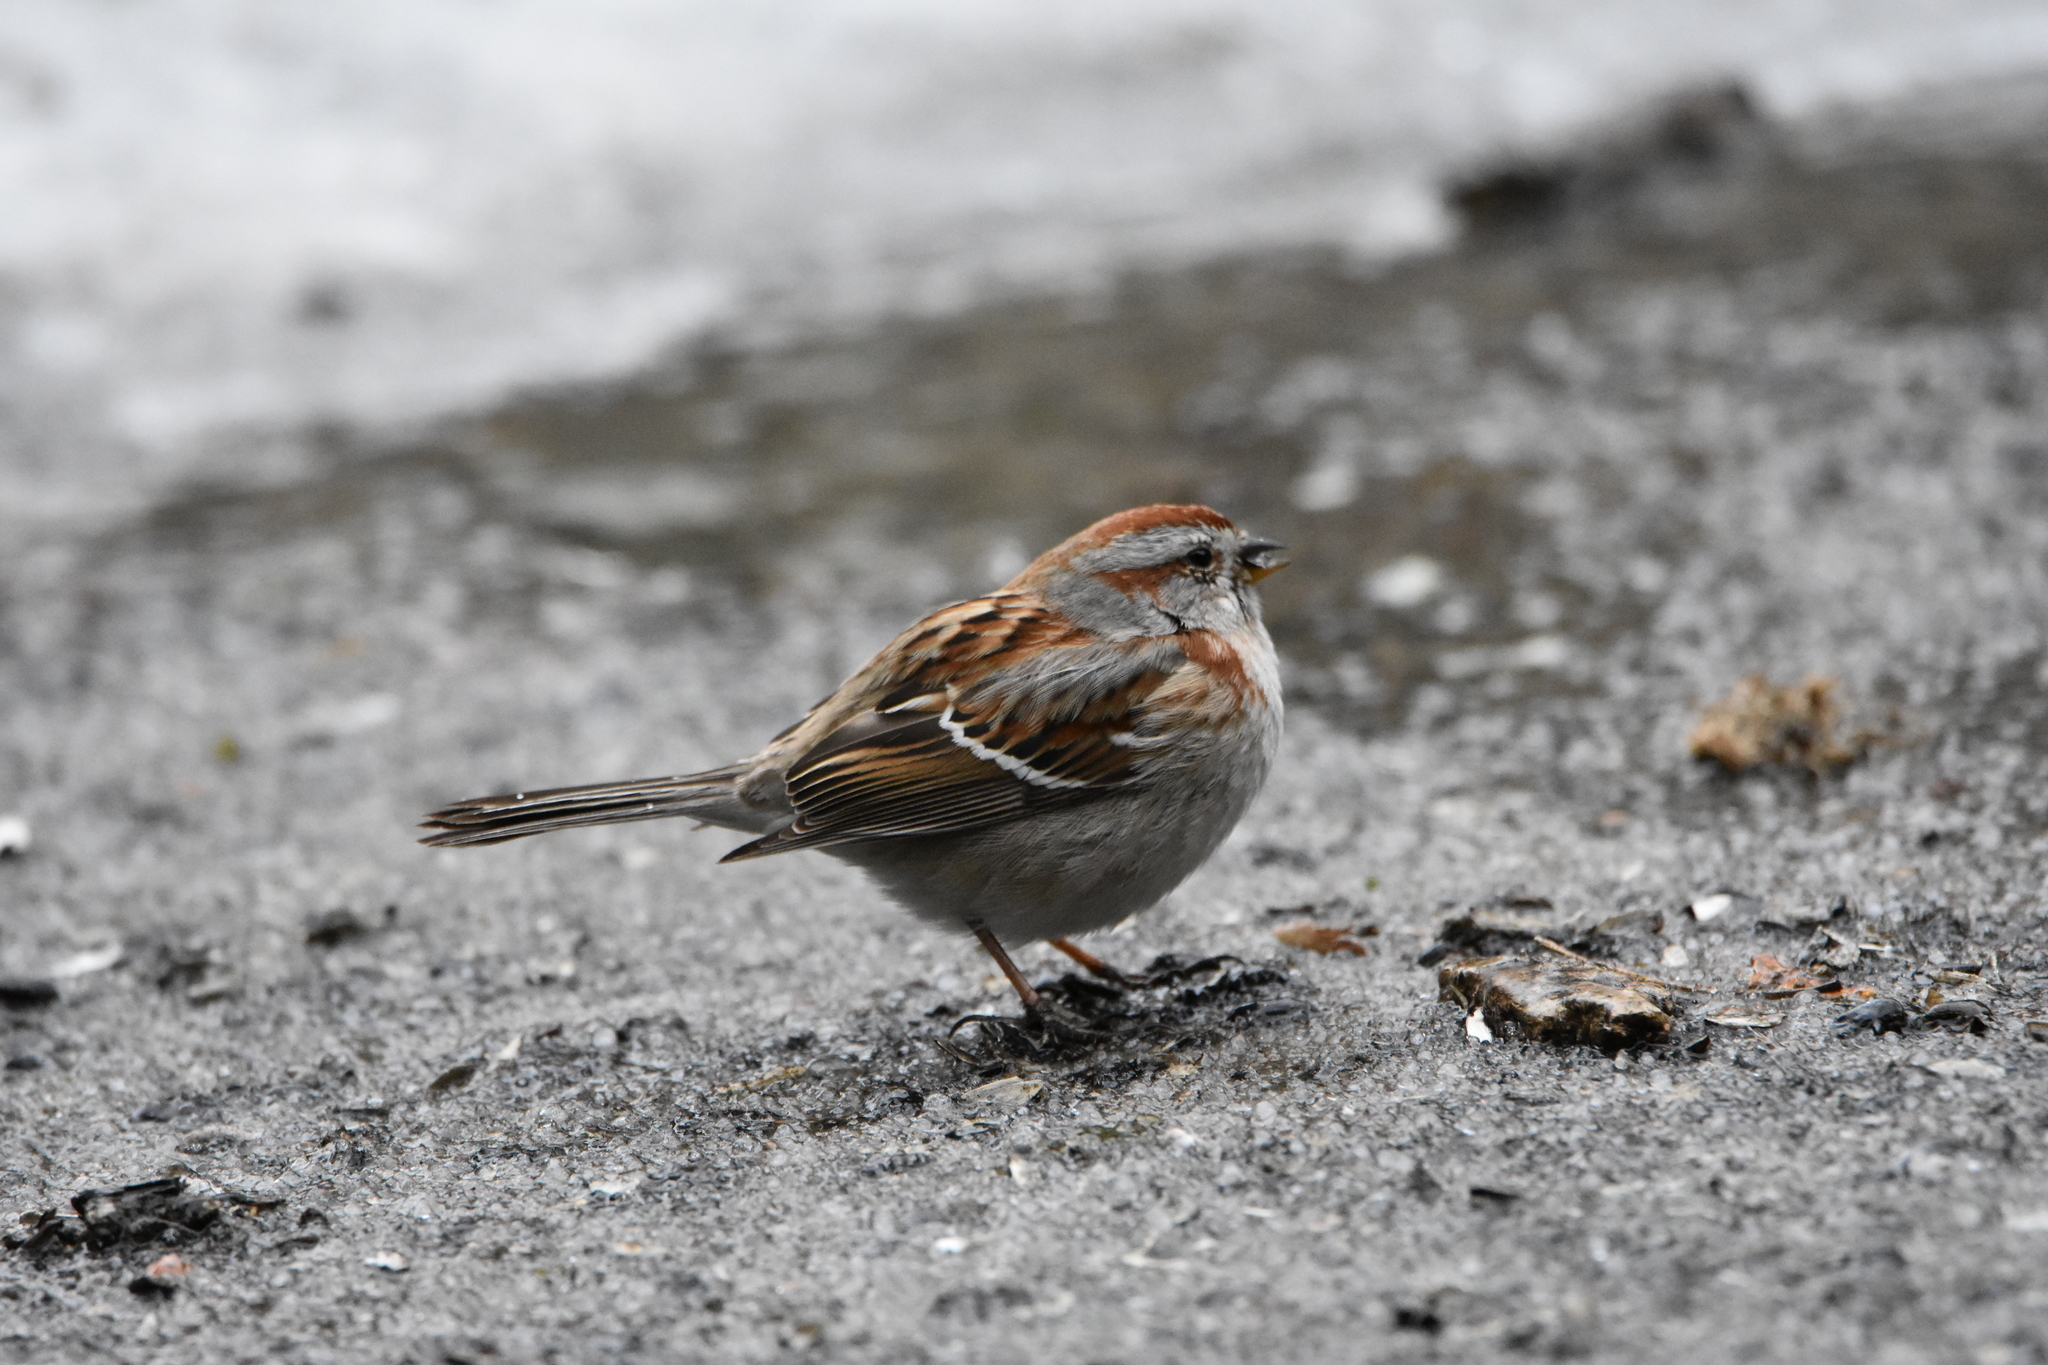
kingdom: Animalia
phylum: Chordata
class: Aves
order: Passeriformes
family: Passerellidae
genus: Spizelloides
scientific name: Spizelloides arborea
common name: American tree sparrow
